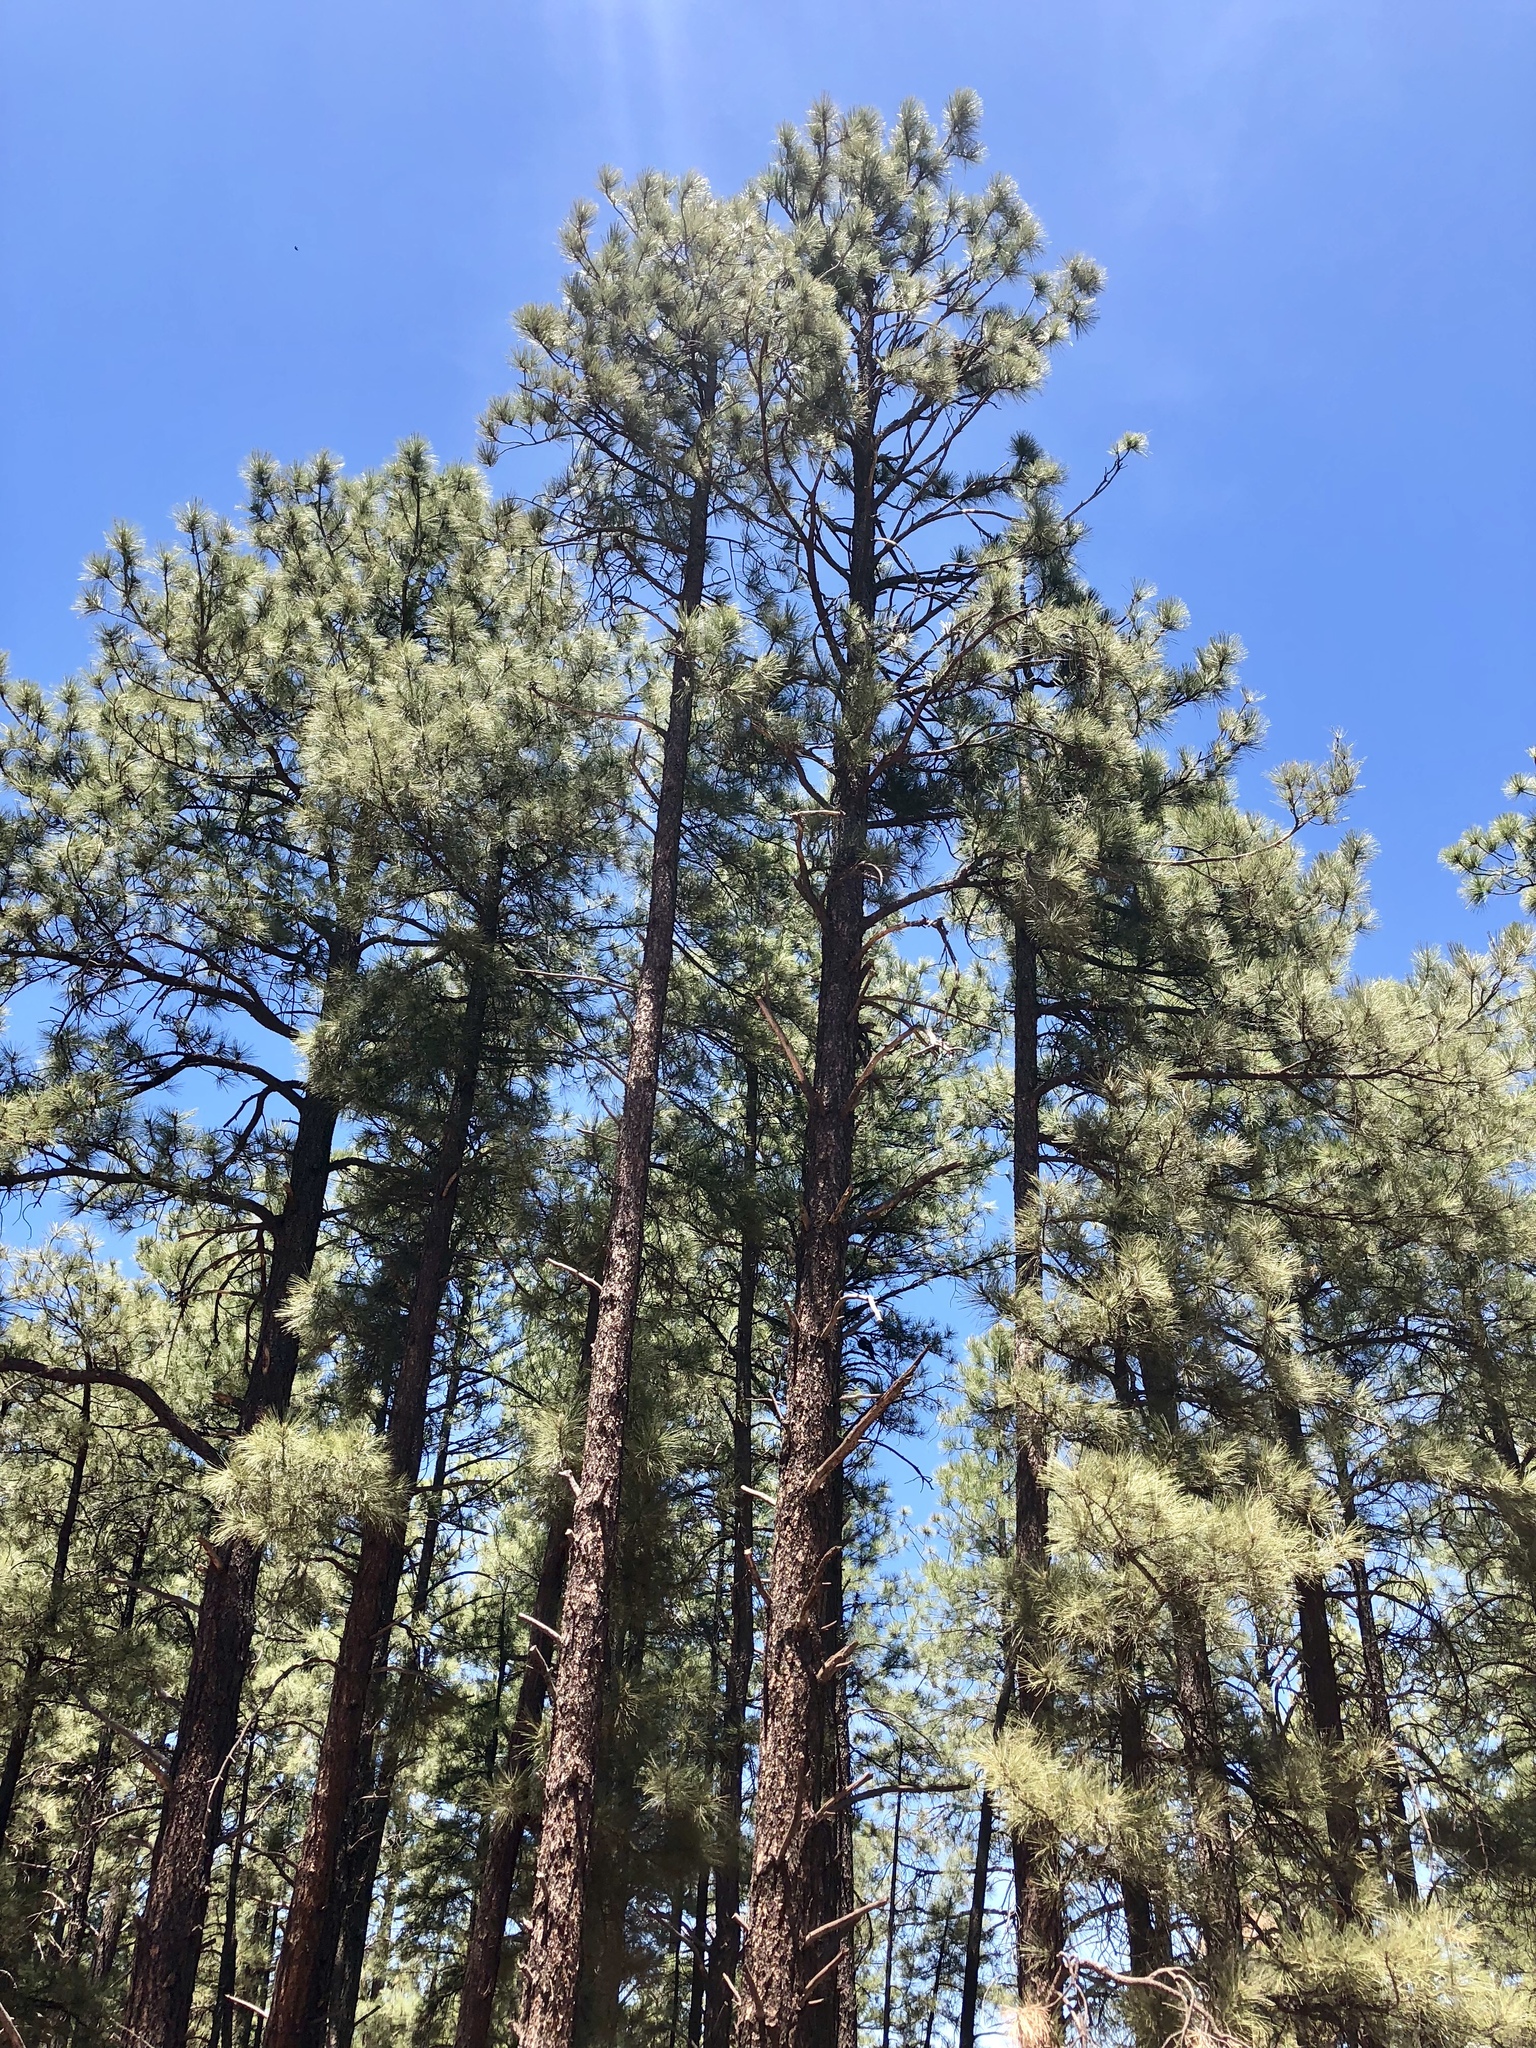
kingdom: Plantae
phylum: Tracheophyta
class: Pinopsida
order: Pinales
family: Pinaceae
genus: Pinus
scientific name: Pinus ponderosa
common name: Western yellow-pine
